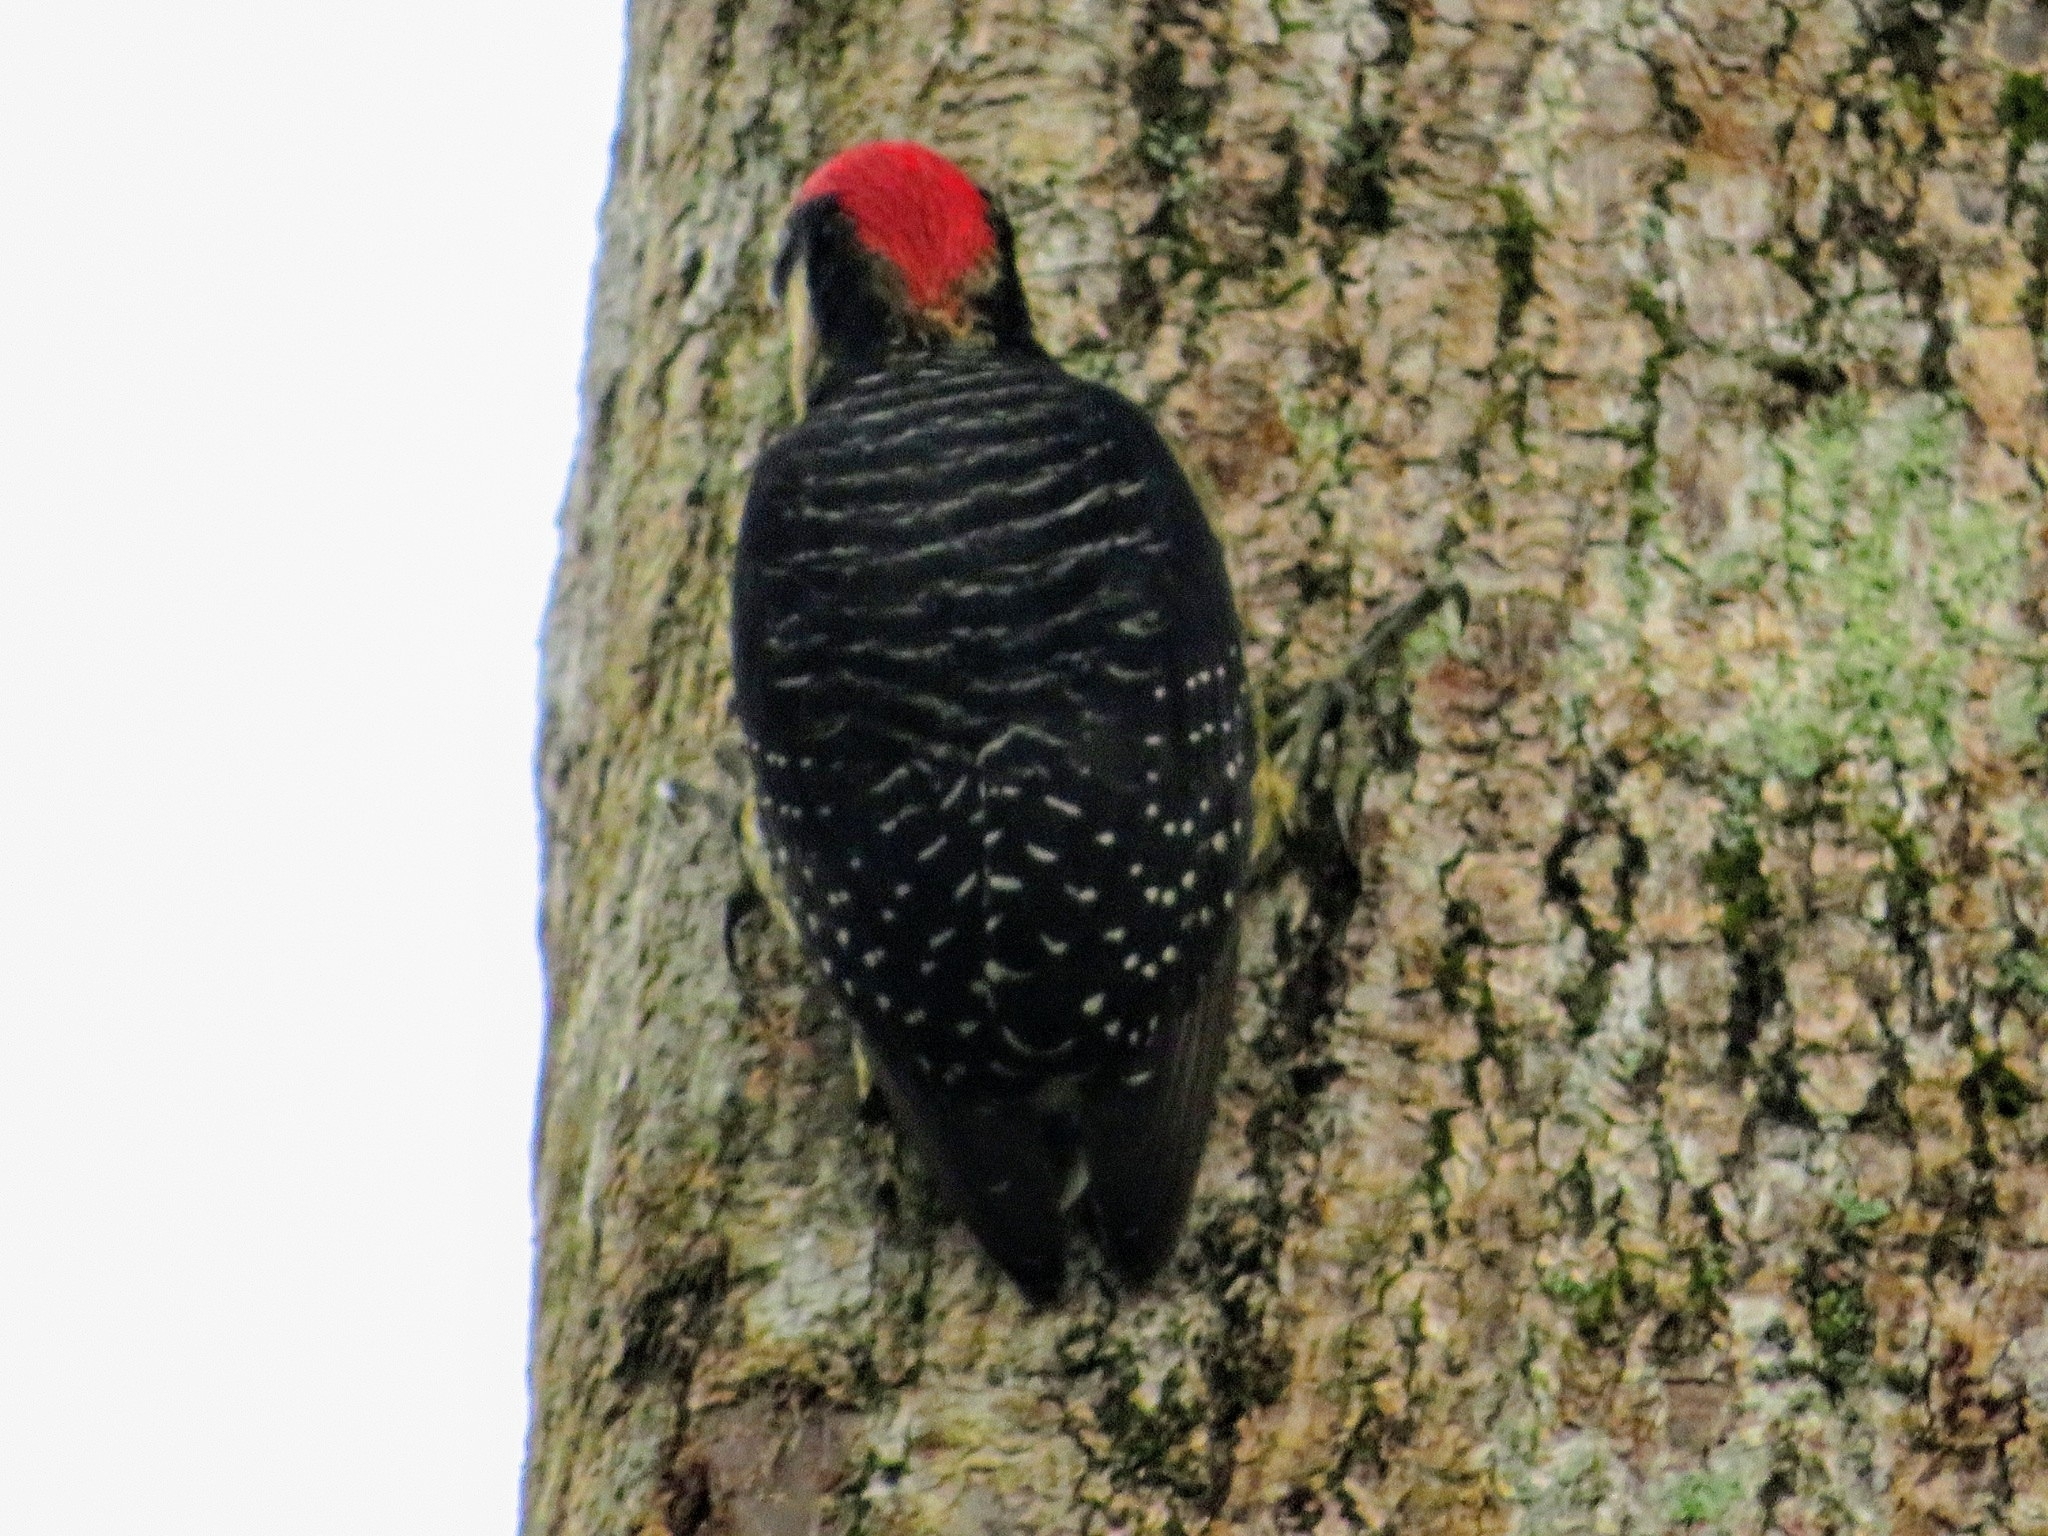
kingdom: Animalia
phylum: Chordata
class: Aves
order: Piciformes
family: Picidae
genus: Melanerpes
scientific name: Melanerpes pucherani
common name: Black-cheeked woodpecker
